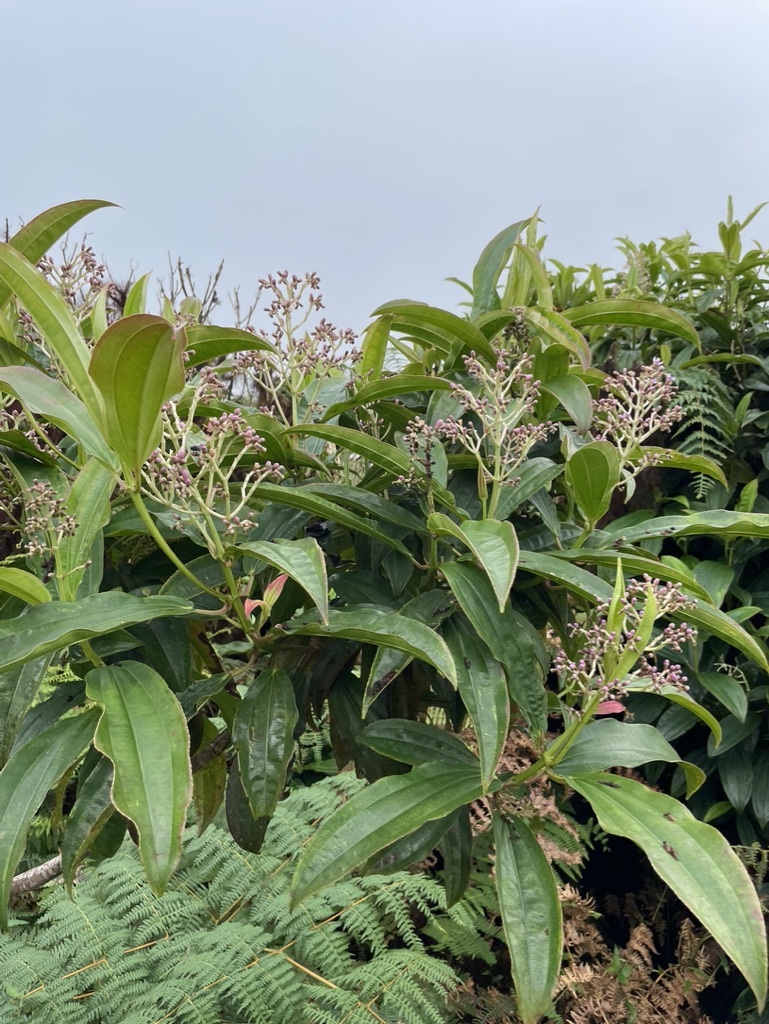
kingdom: Plantae
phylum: Tracheophyta
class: Magnoliopsida
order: Myrtales
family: Melastomataceae
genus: Miconia
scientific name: Miconia robinsoniana
